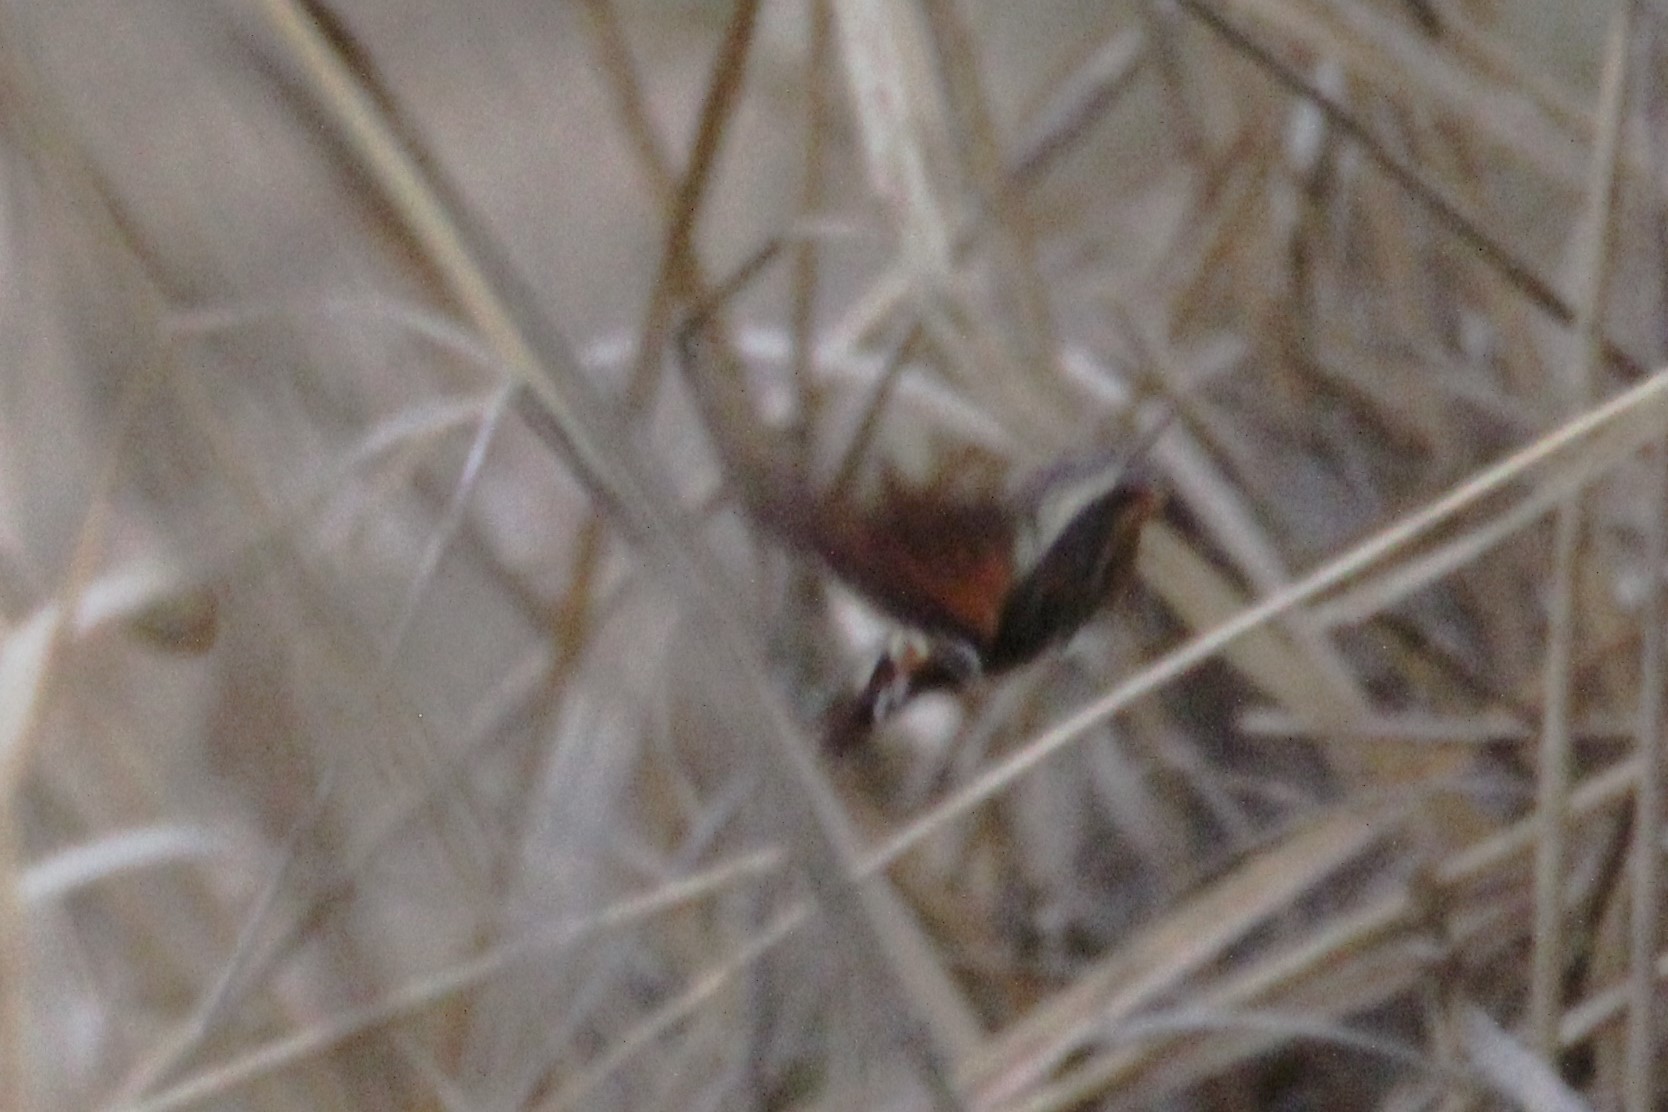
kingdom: Animalia
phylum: Arthropoda
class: Insecta
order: Lepidoptera
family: Sphingidae
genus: Amphion
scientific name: Amphion floridensis
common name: Nessus sphinx
